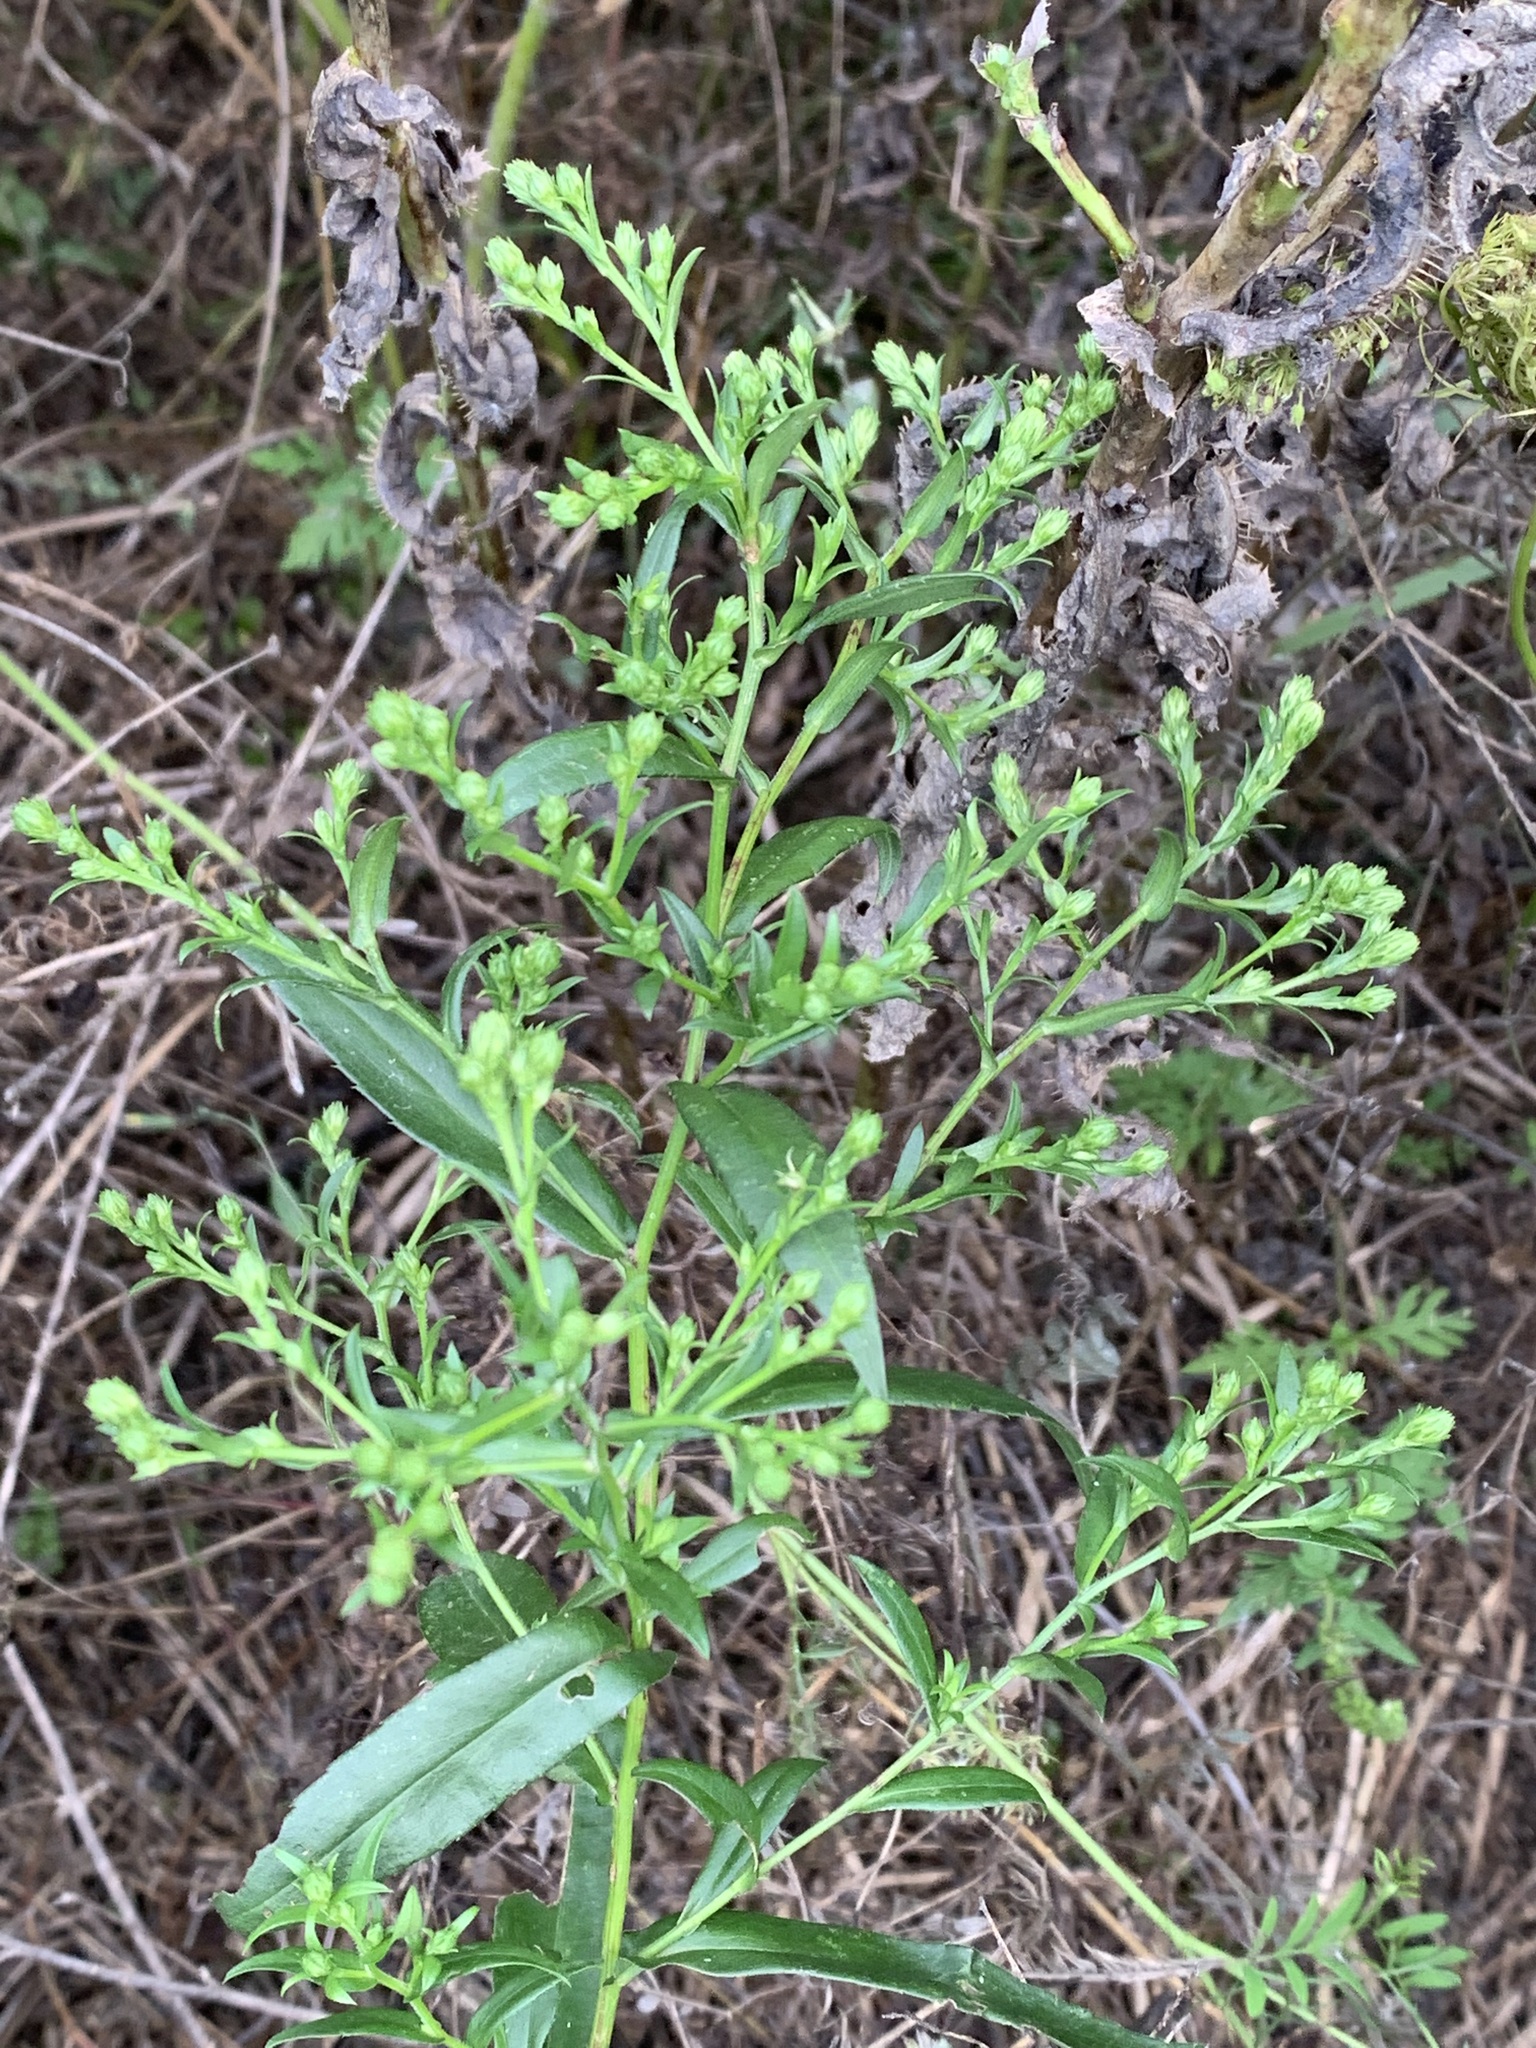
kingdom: Plantae
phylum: Tracheophyta
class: Magnoliopsida
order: Asterales
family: Asteraceae
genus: Symphyotrichum
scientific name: Symphyotrichum firmum
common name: Shining aster
